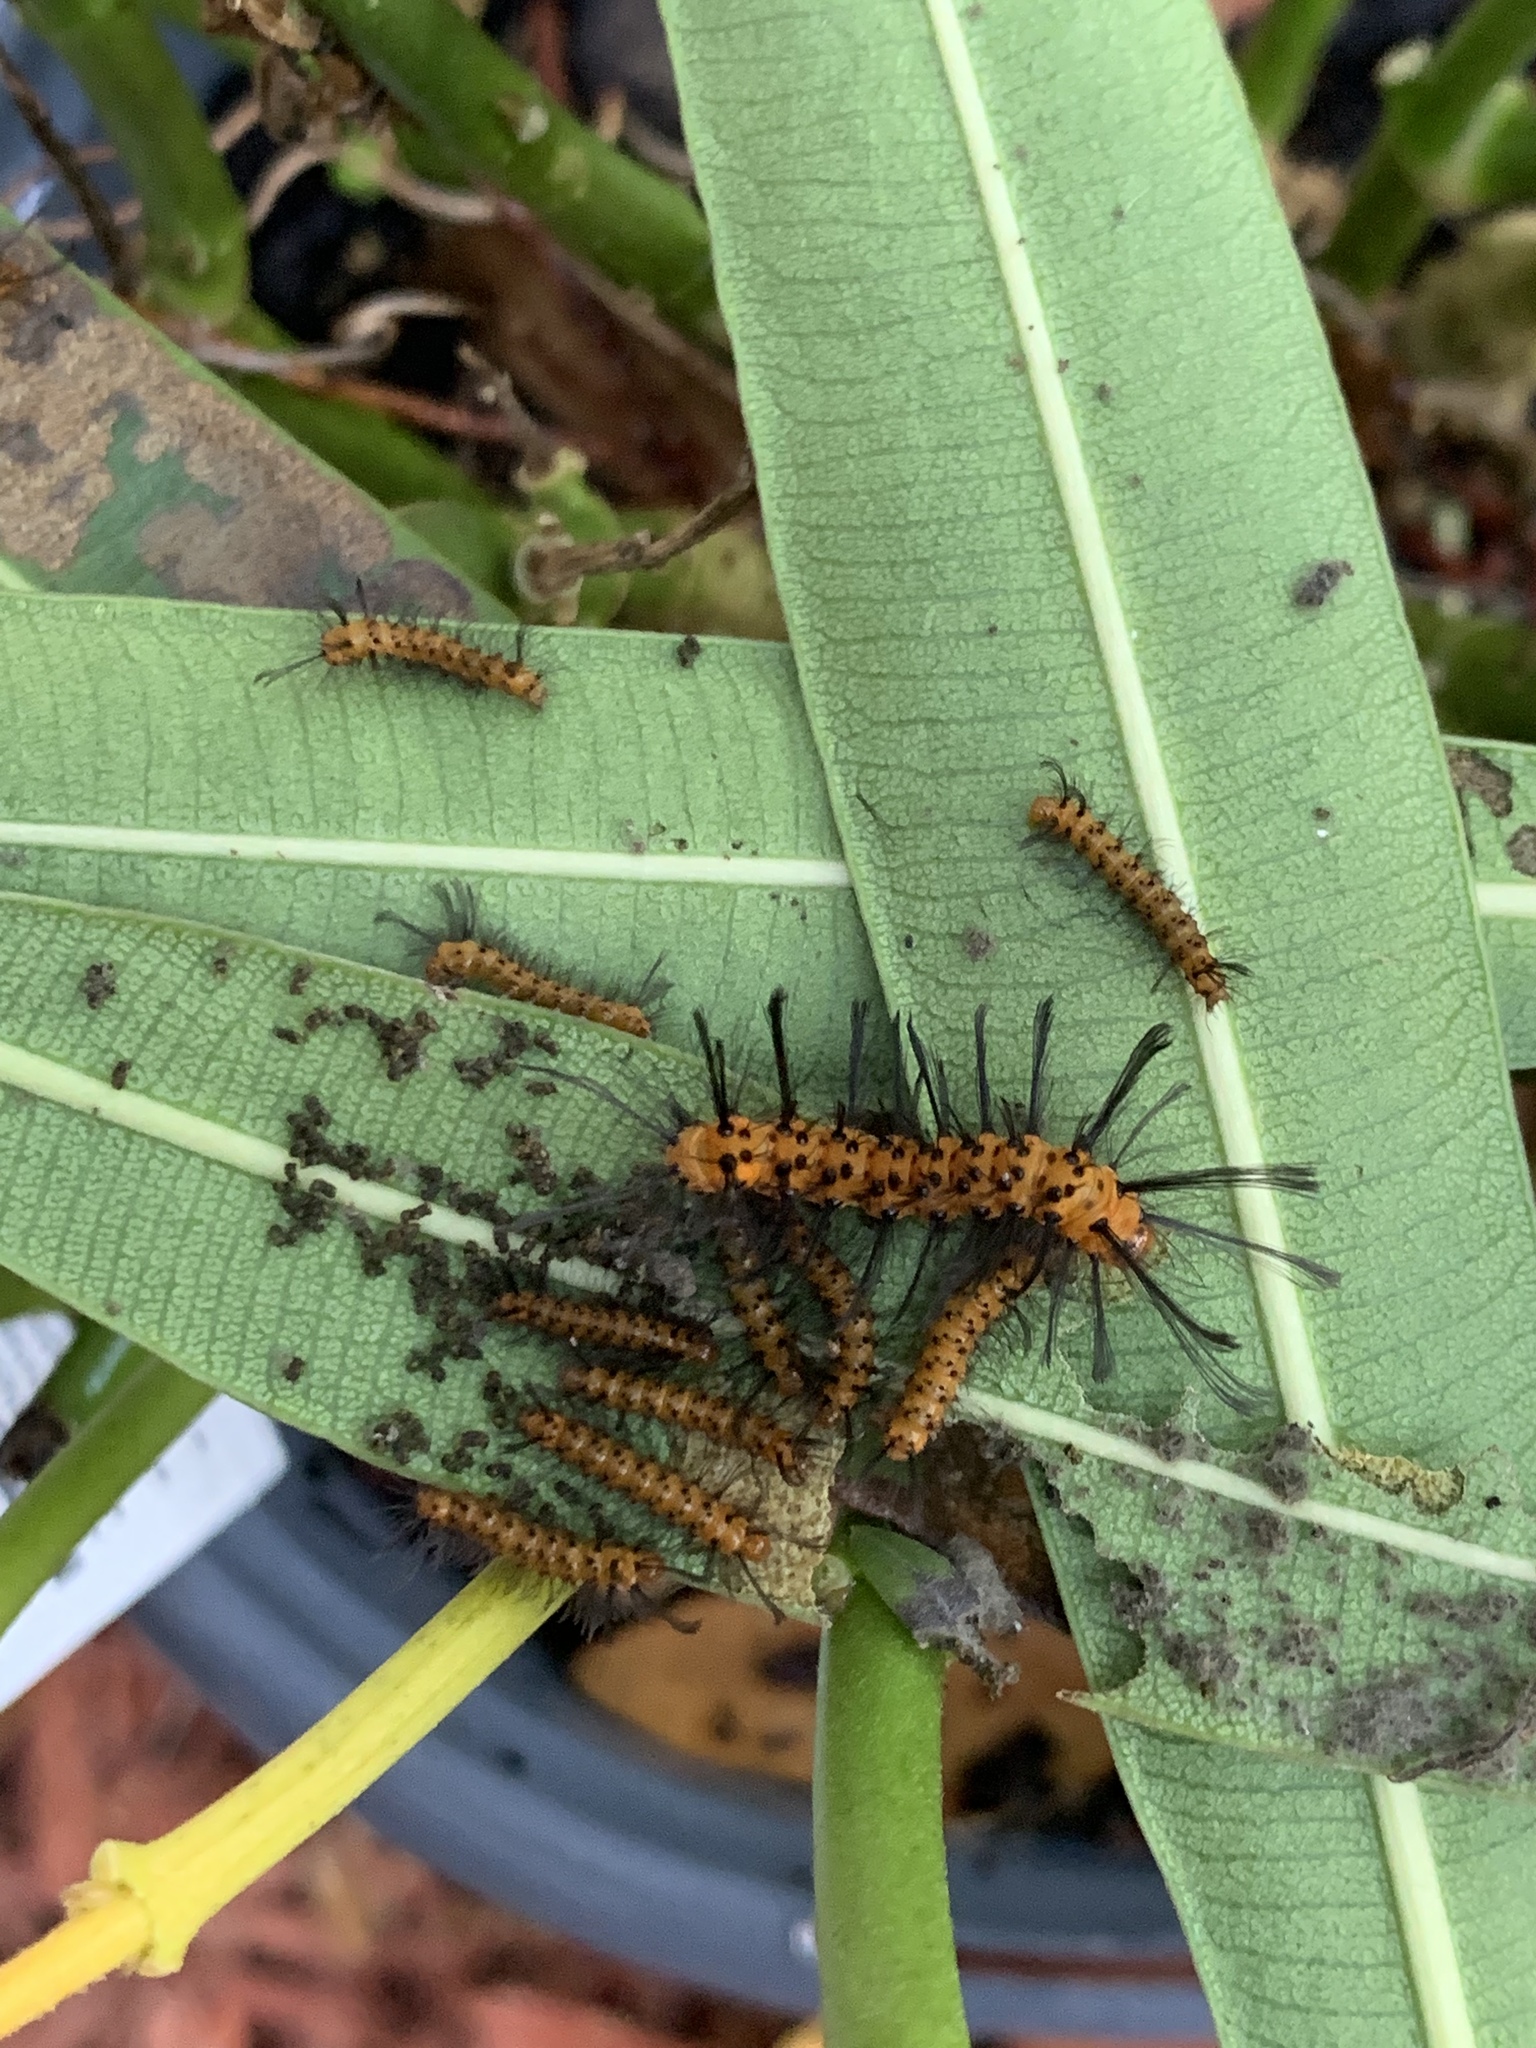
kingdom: Animalia
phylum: Arthropoda
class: Insecta
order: Lepidoptera
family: Erebidae
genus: Syntomeida
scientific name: Syntomeida epilais
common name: Polka-dot wasp moth
